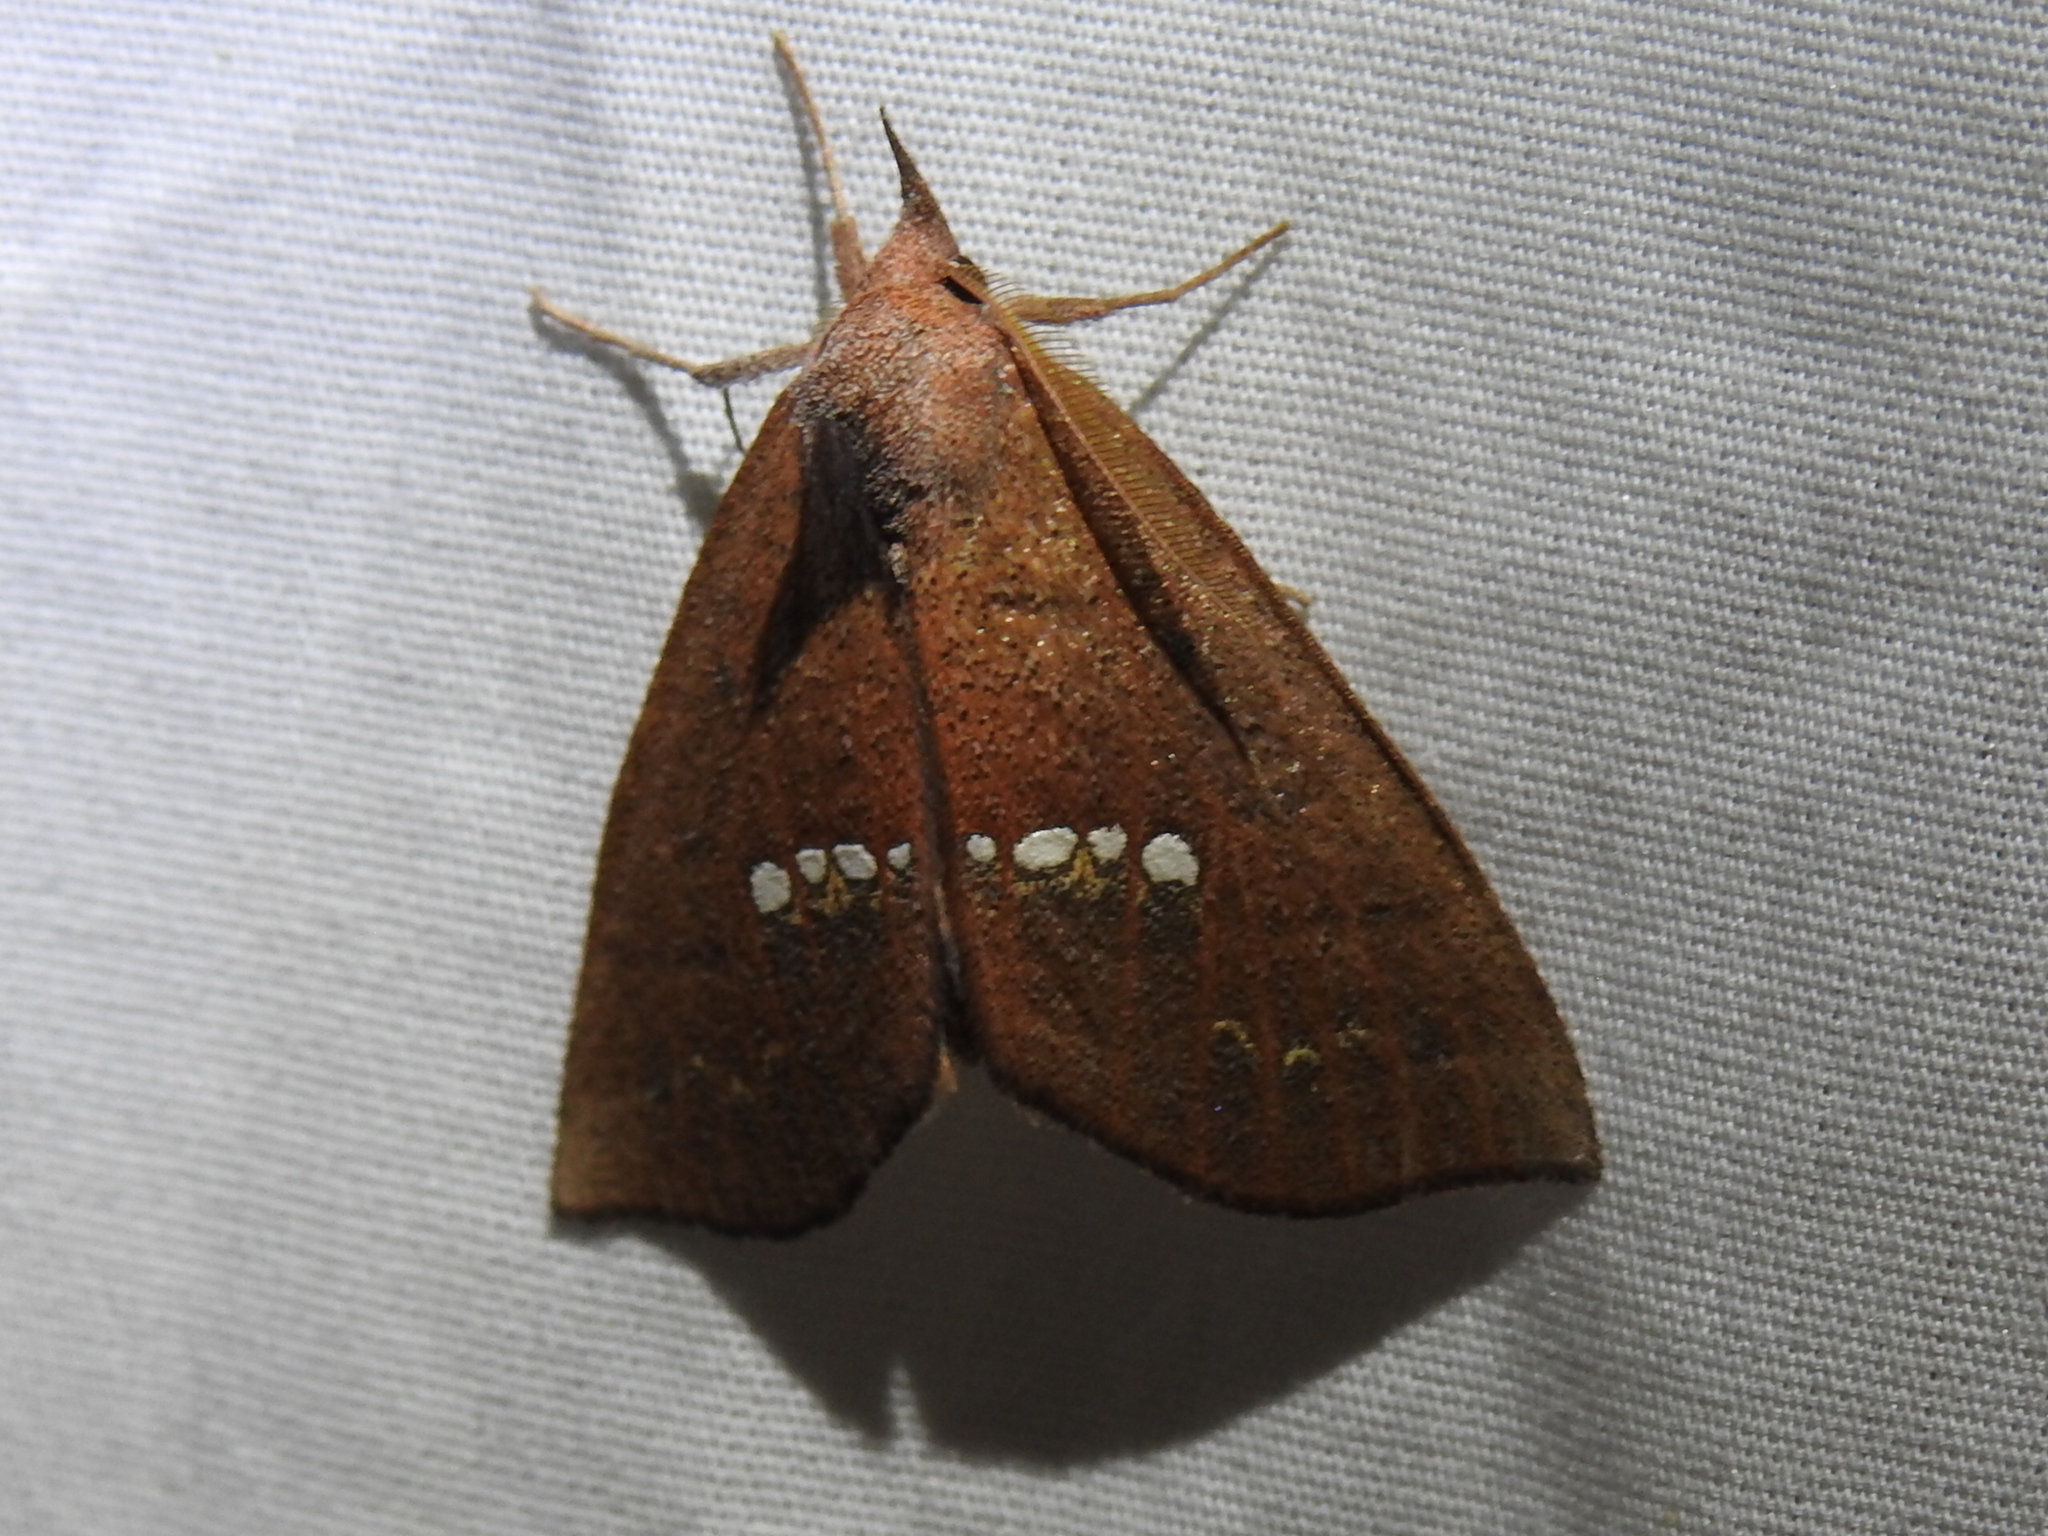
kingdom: Animalia
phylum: Arthropoda
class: Insecta
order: Lepidoptera
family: Erebidae
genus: Hypsoropha
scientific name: Hypsoropha monilis
